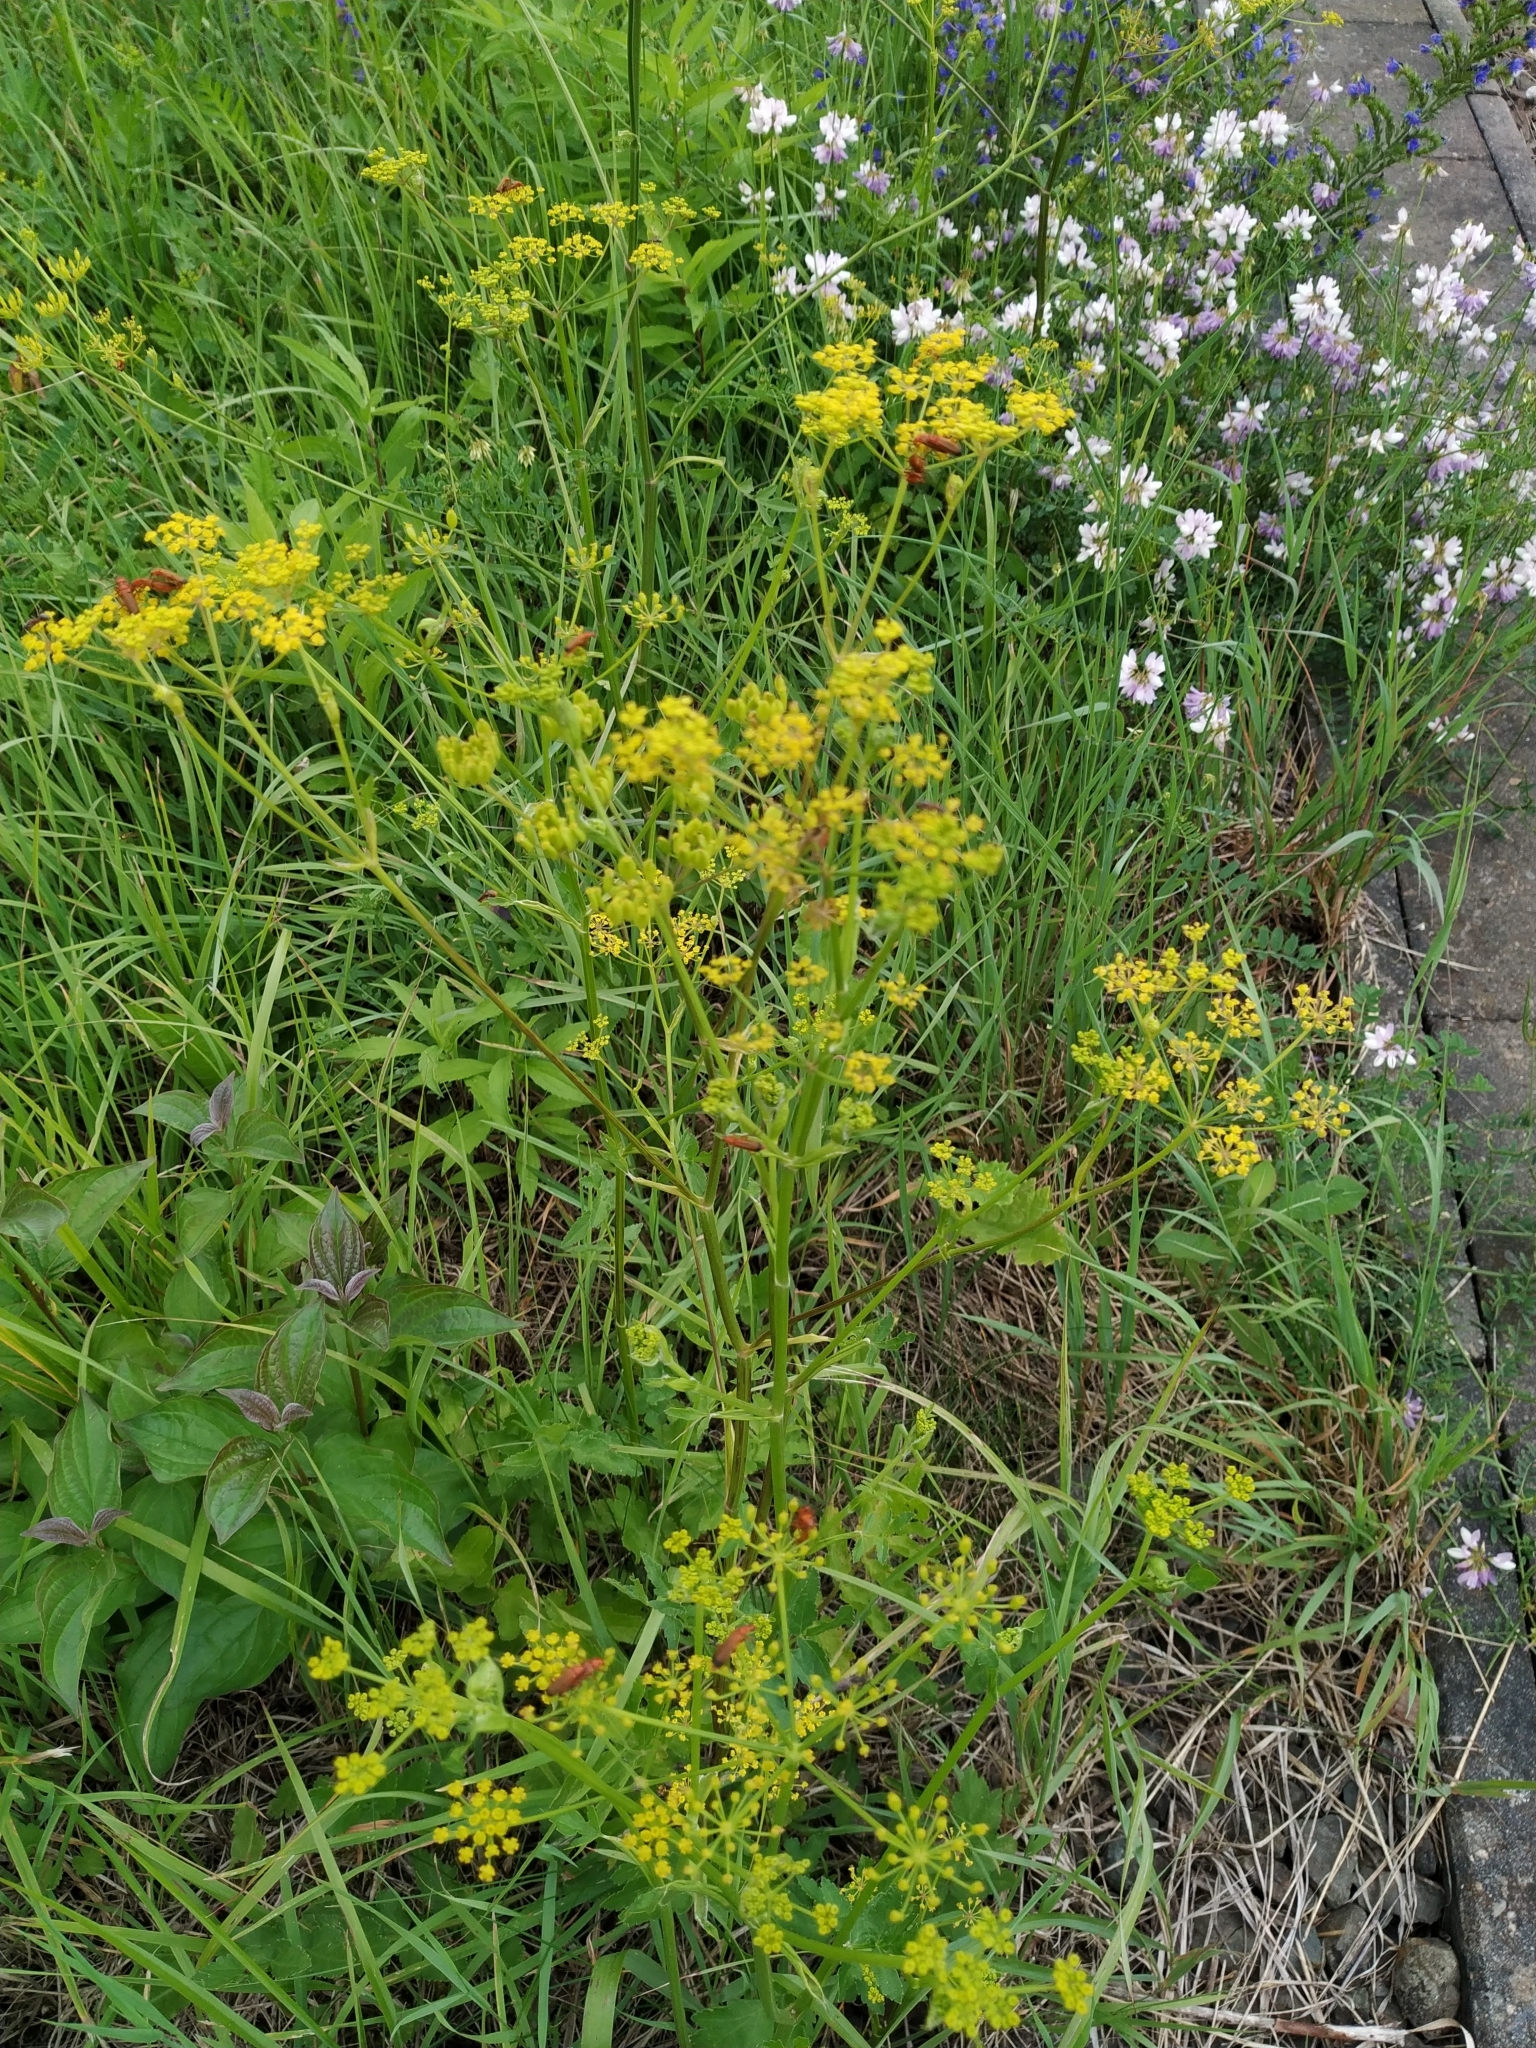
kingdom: Plantae
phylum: Tracheophyta
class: Magnoliopsida
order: Apiales
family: Apiaceae
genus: Pastinaca
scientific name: Pastinaca sativa
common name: Wild parsnip
